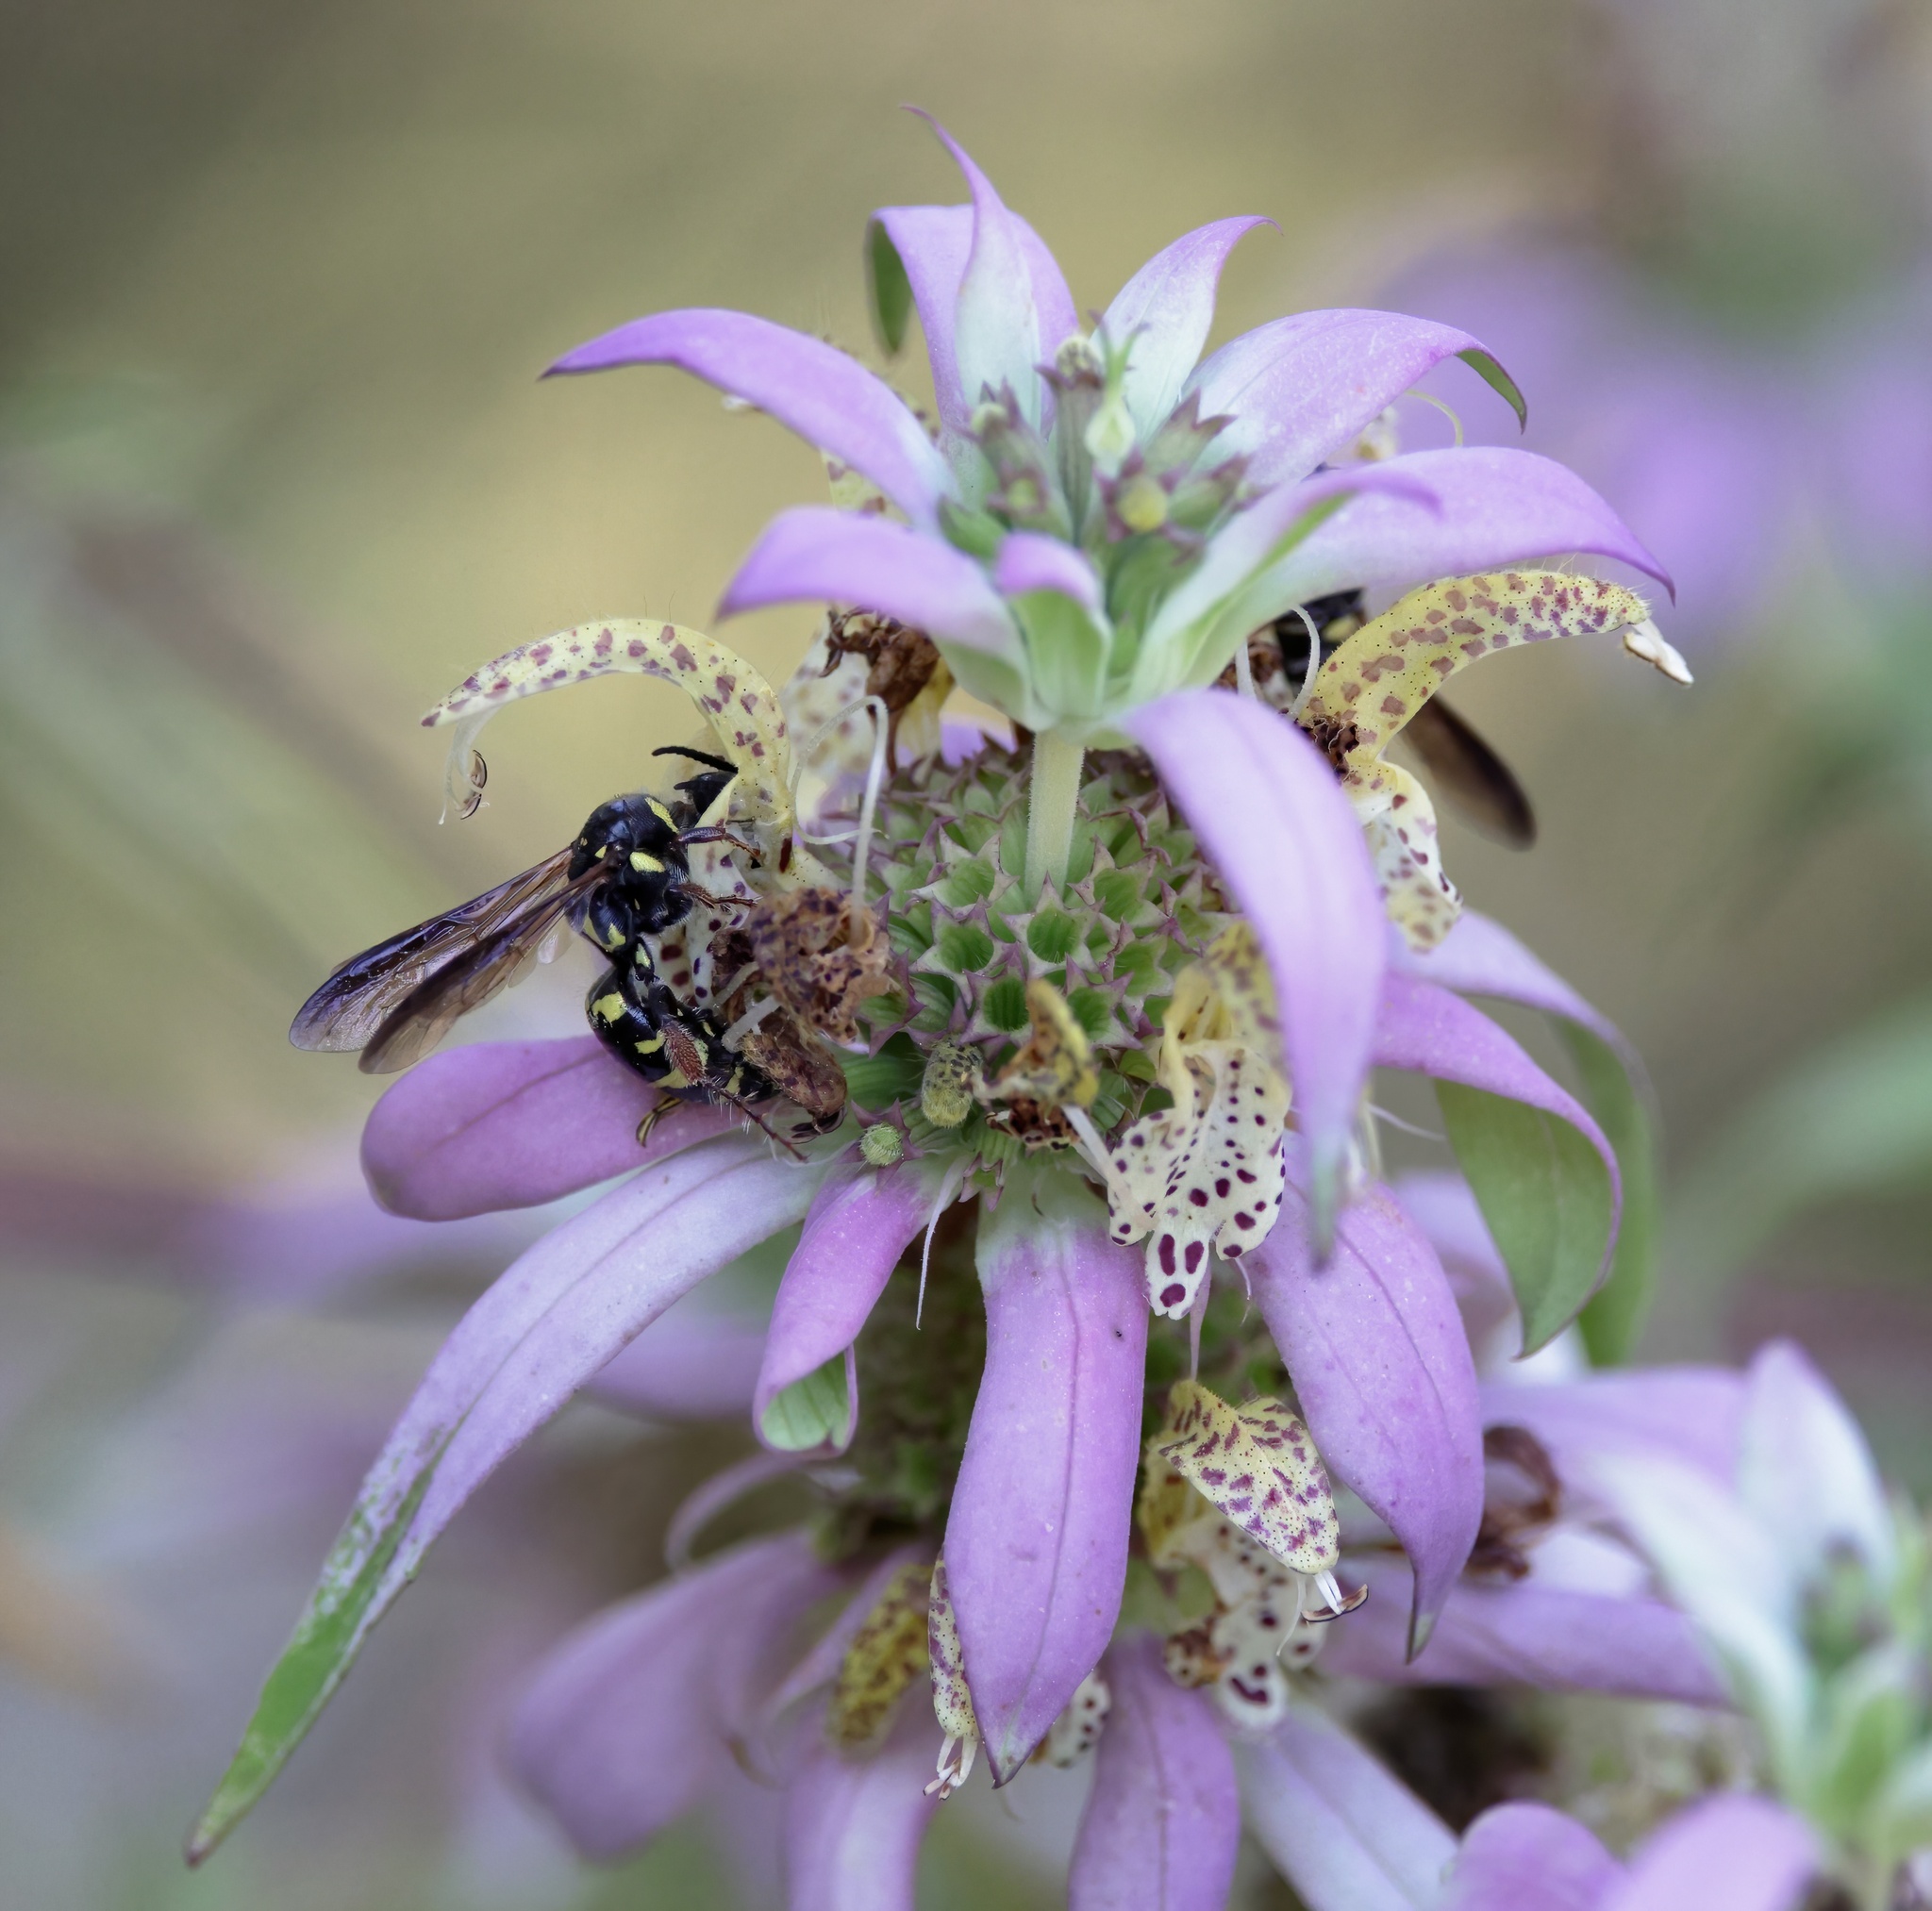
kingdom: Animalia
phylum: Arthropoda
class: Insecta
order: Hymenoptera
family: Tiphiidae
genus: Myzinum
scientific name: Myzinum maculatum
